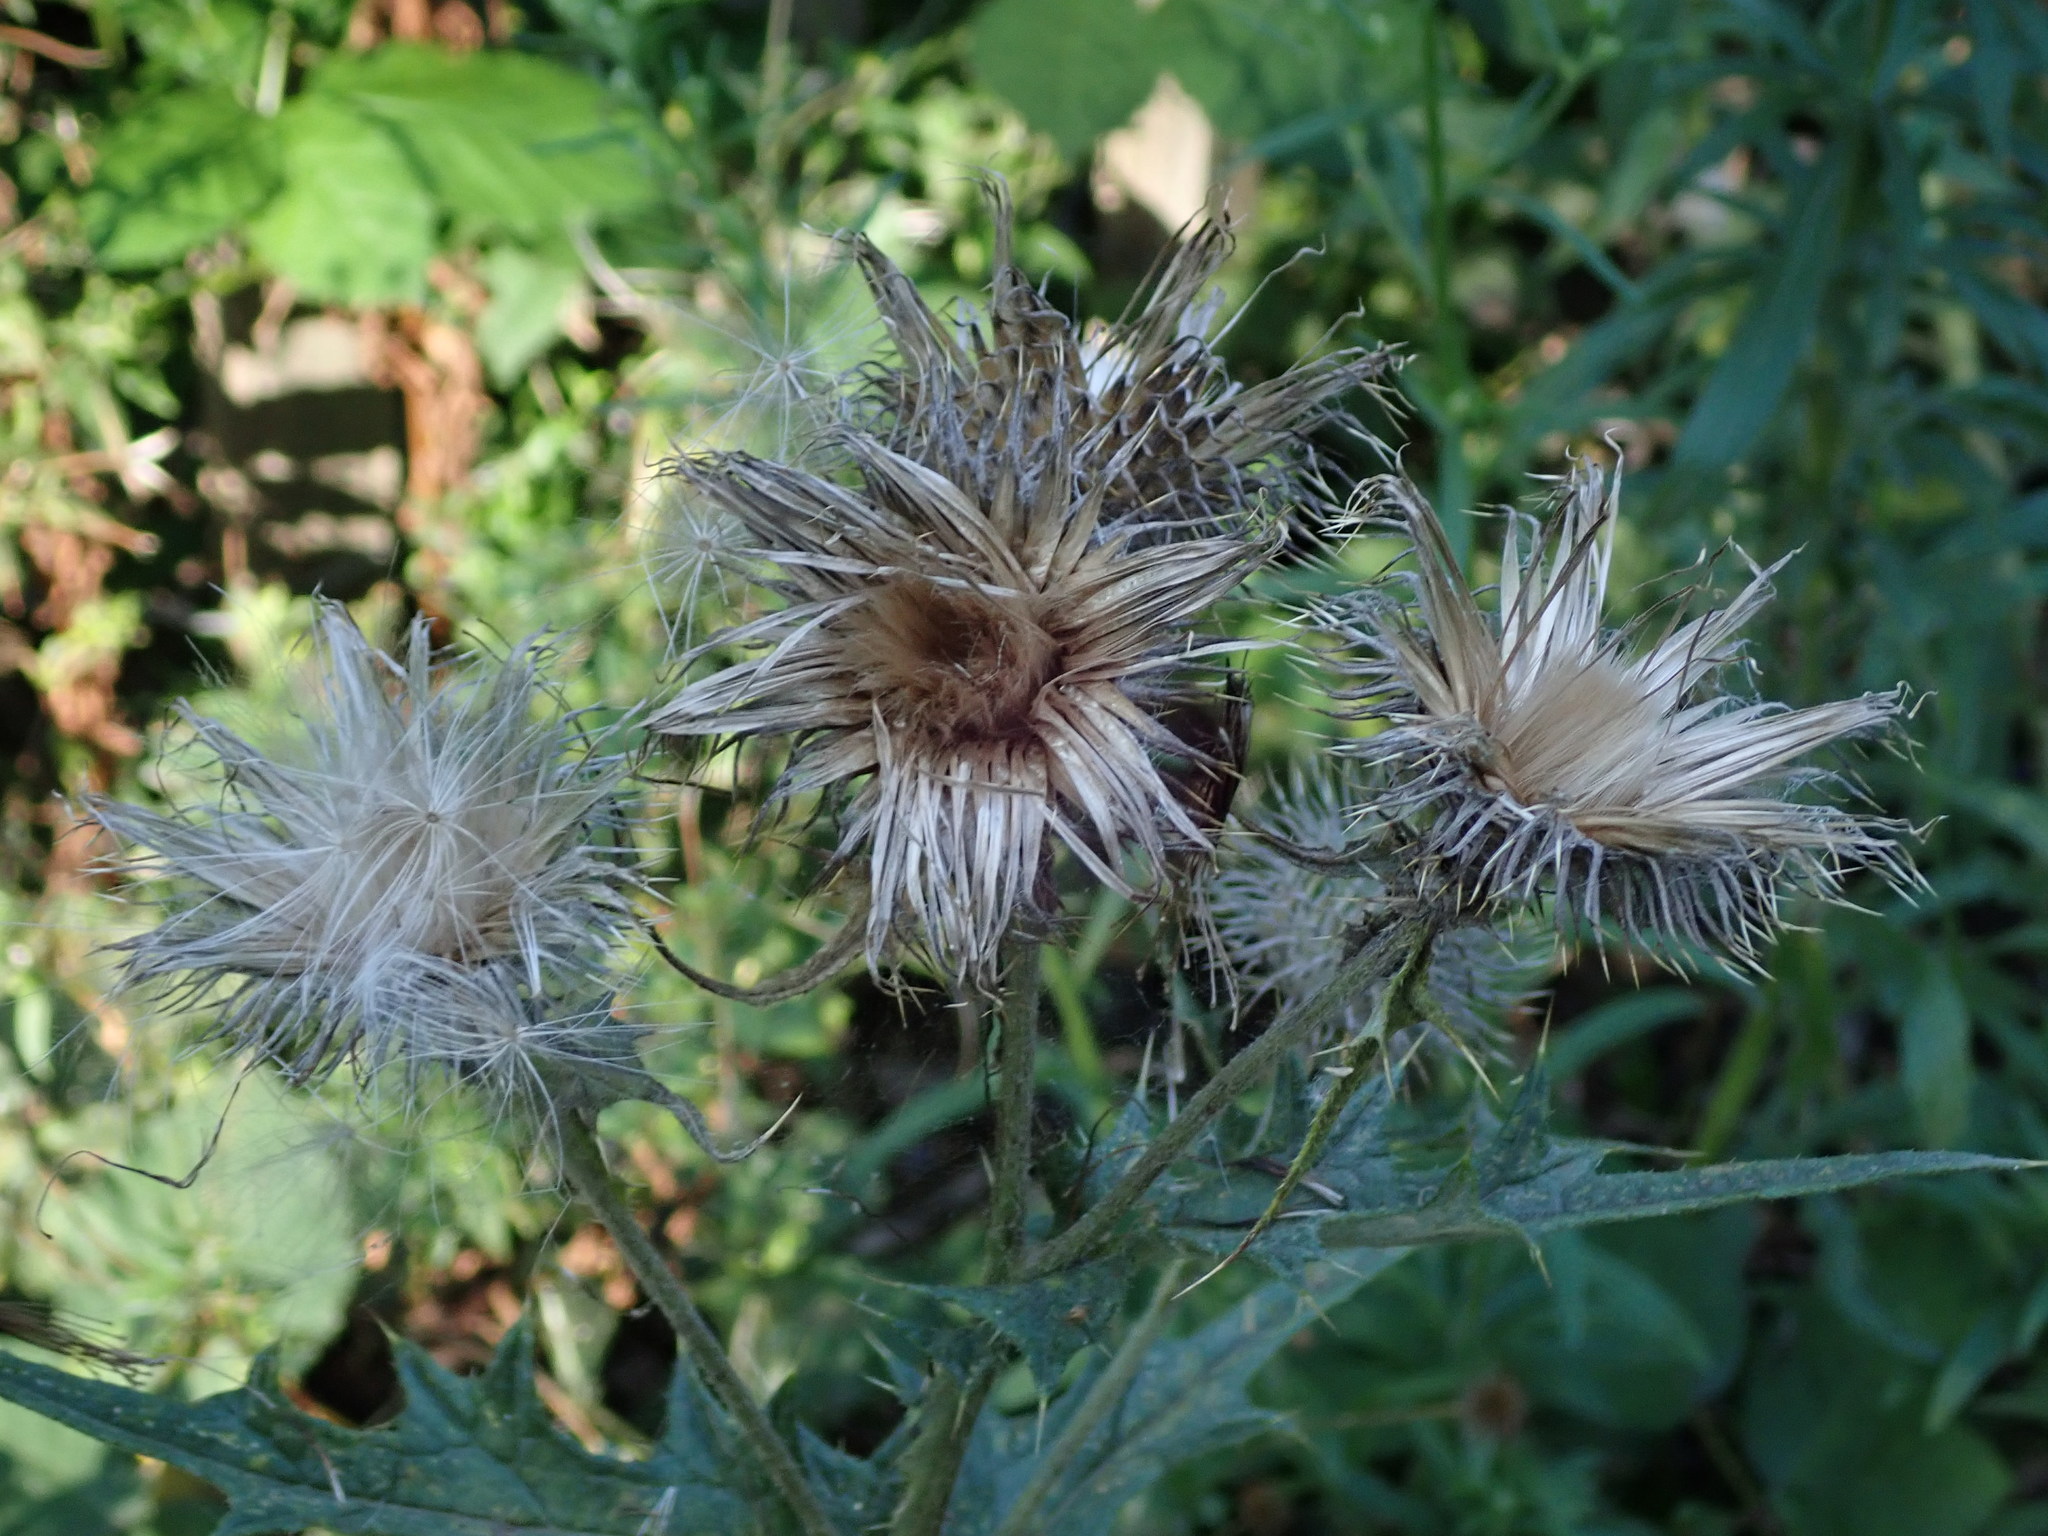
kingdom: Plantae
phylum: Tracheophyta
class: Magnoliopsida
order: Asterales
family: Asteraceae
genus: Cirsium
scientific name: Cirsium vulgare
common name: Bull thistle
